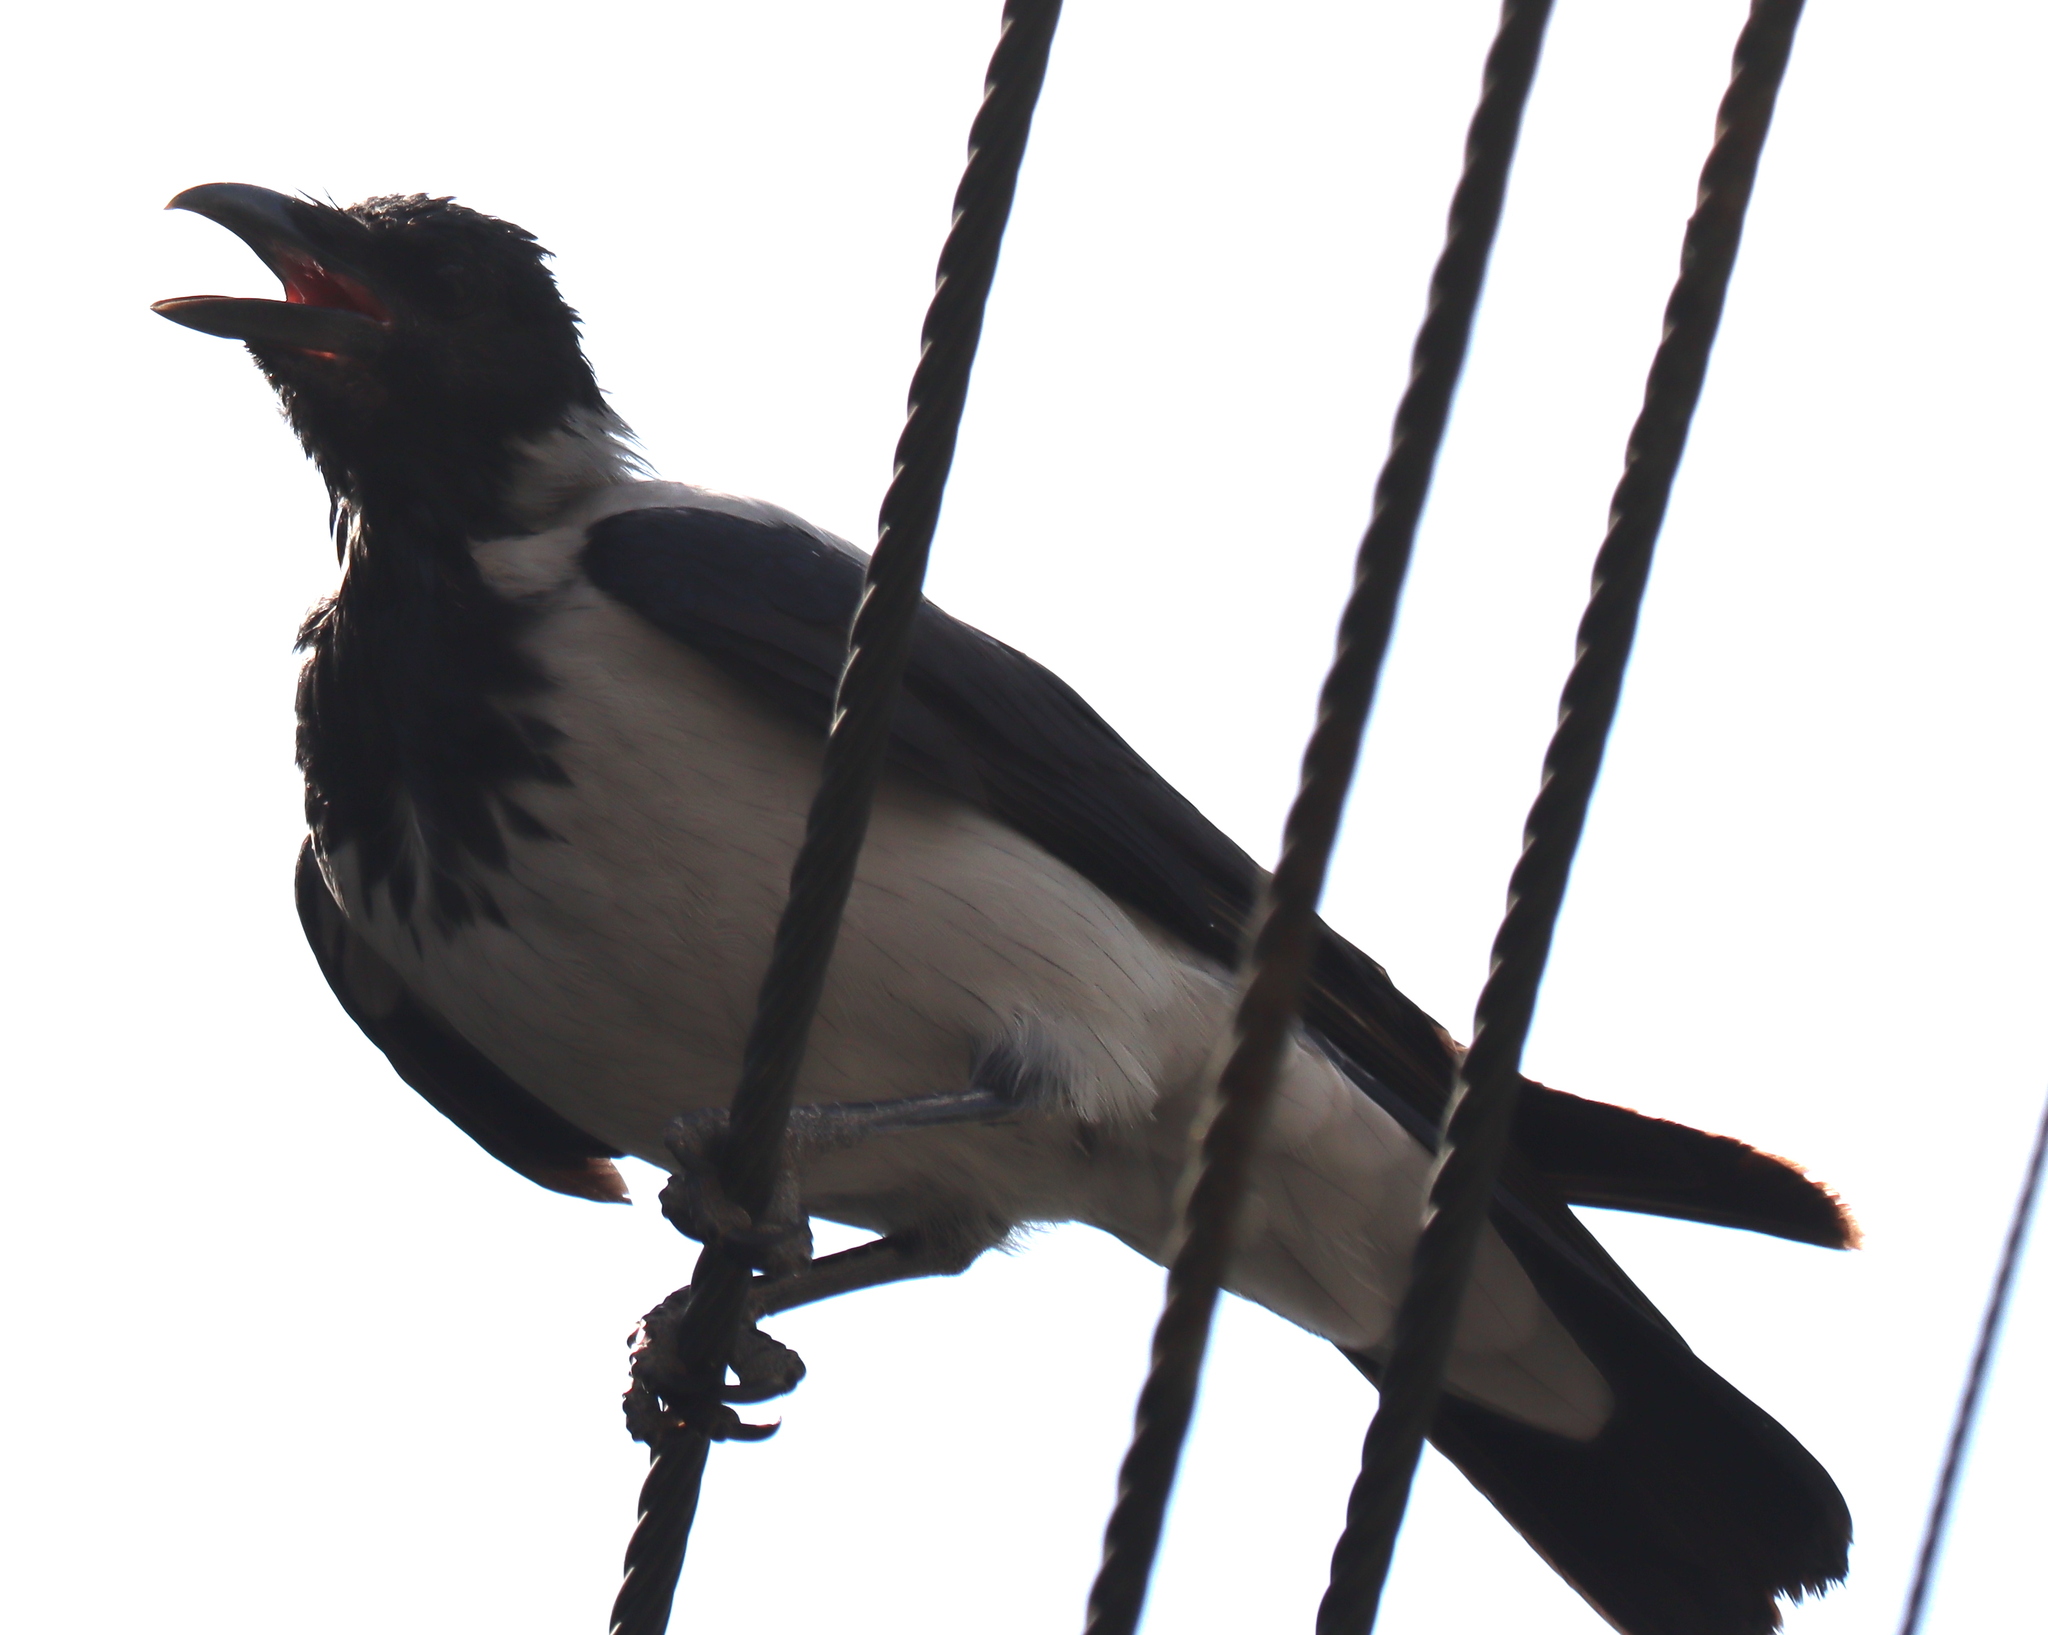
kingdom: Animalia
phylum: Chordata
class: Aves
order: Passeriformes
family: Corvidae
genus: Corvus
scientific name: Corvus cornix
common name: Hooded crow
